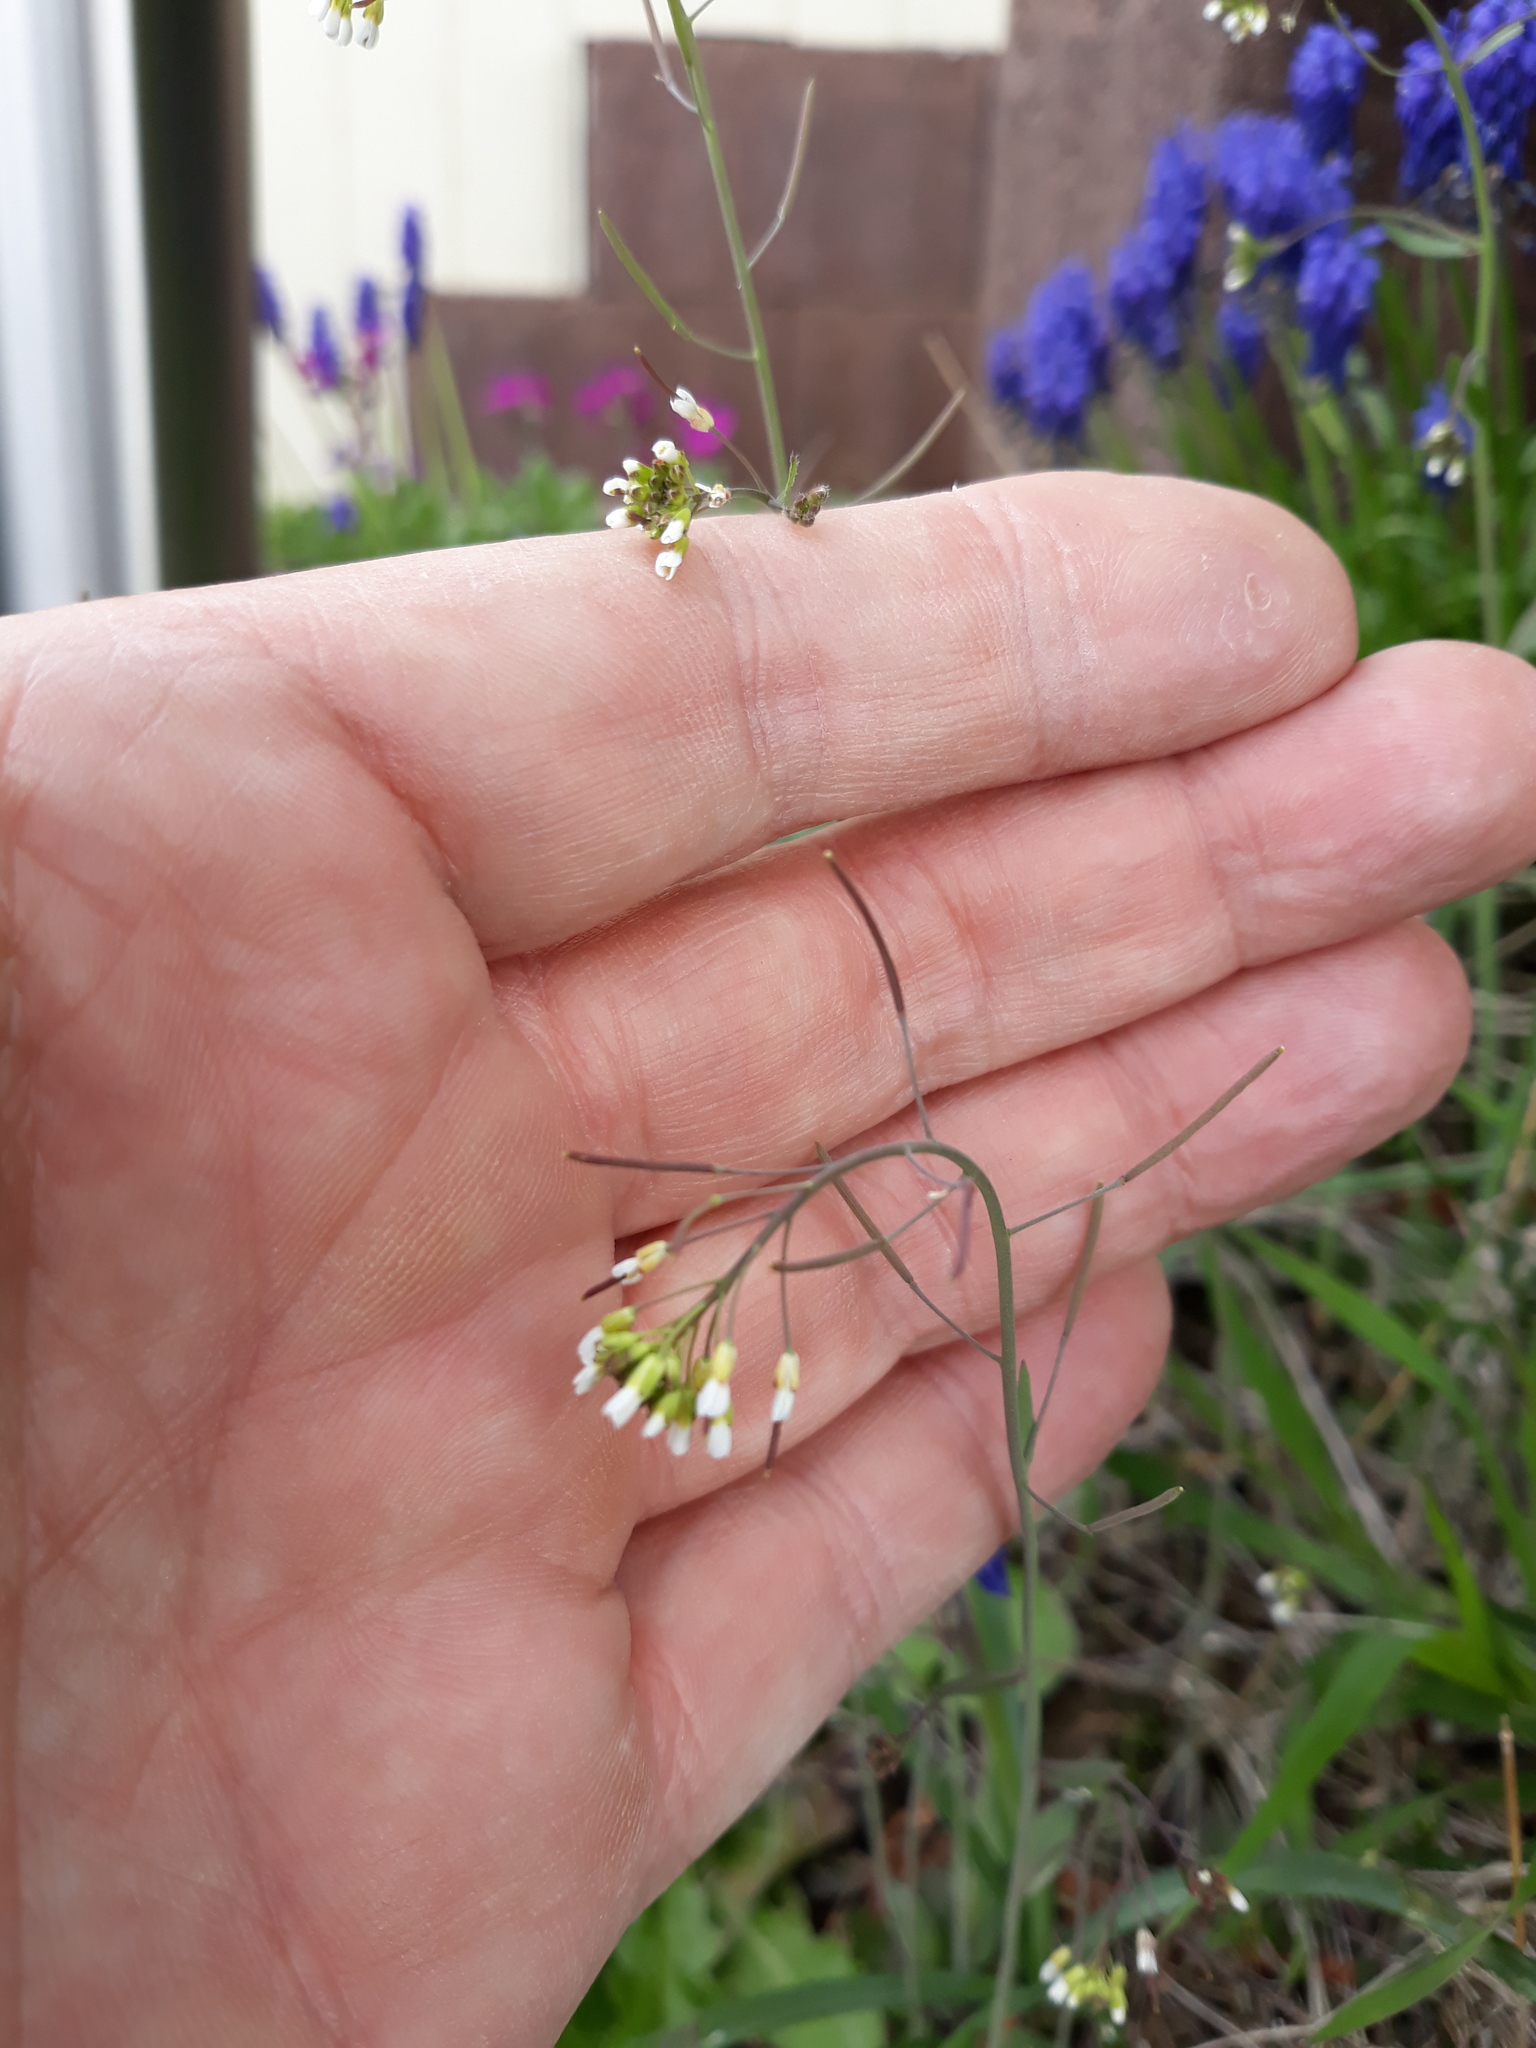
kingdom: Plantae
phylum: Tracheophyta
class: Magnoliopsida
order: Brassicales
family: Brassicaceae
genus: Arabidopsis
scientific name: Arabidopsis thaliana
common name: Thale cress
